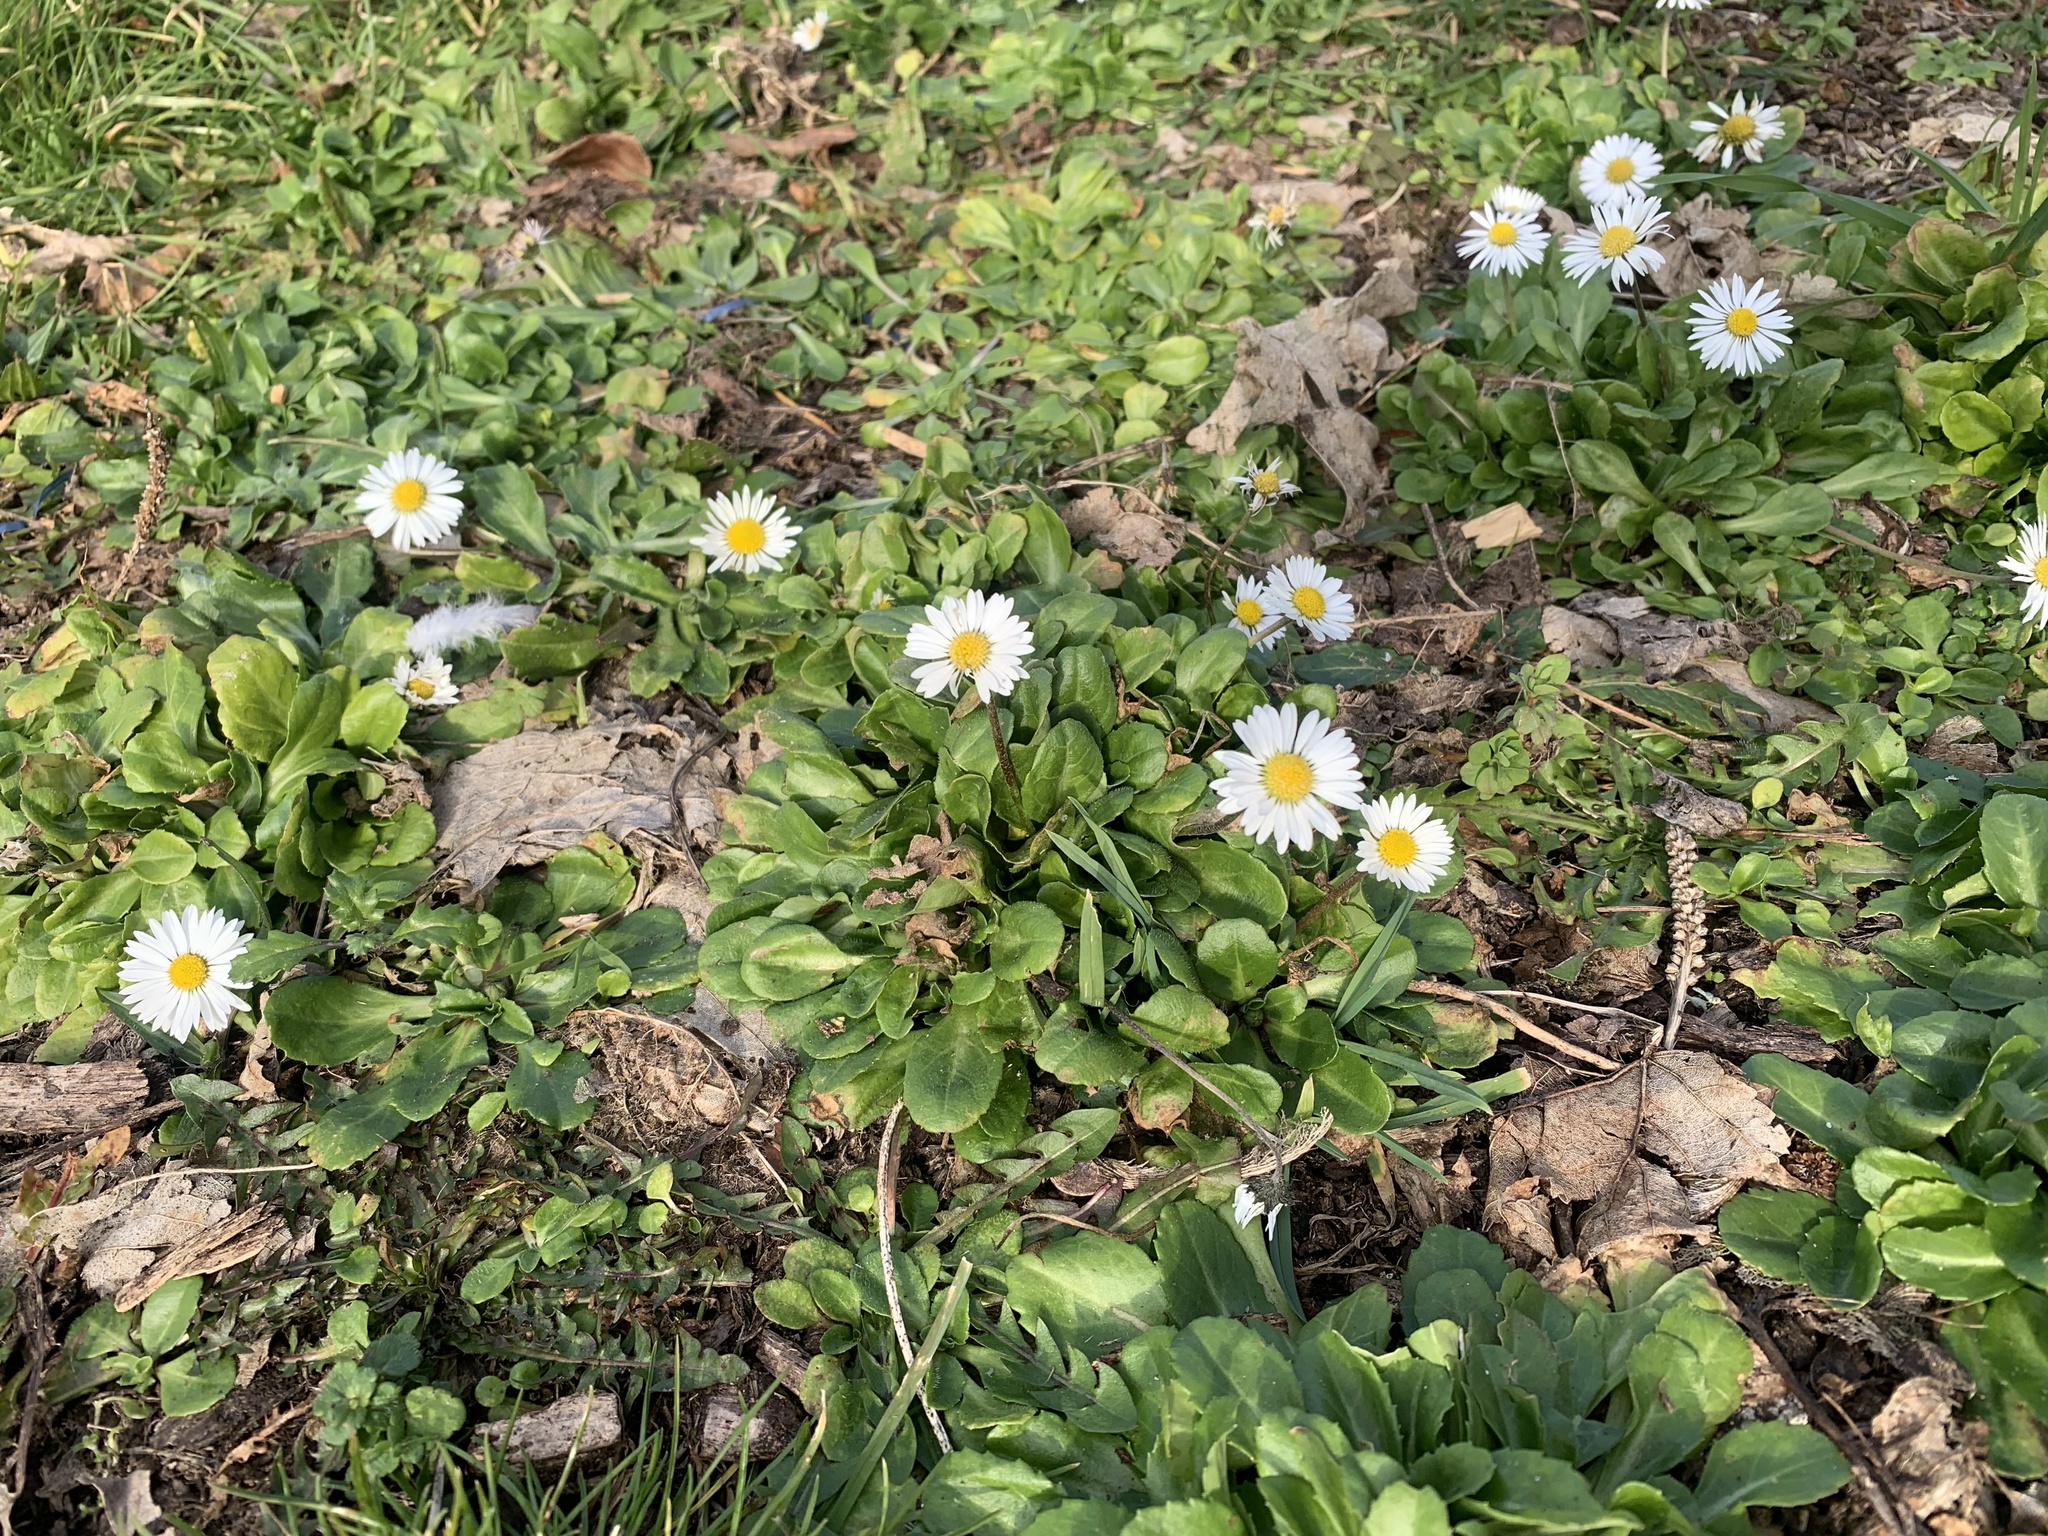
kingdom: Plantae
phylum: Tracheophyta
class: Magnoliopsida
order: Asterales
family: Asteraceae
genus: Bellis
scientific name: Bellis perennis
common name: Lawndaisy
